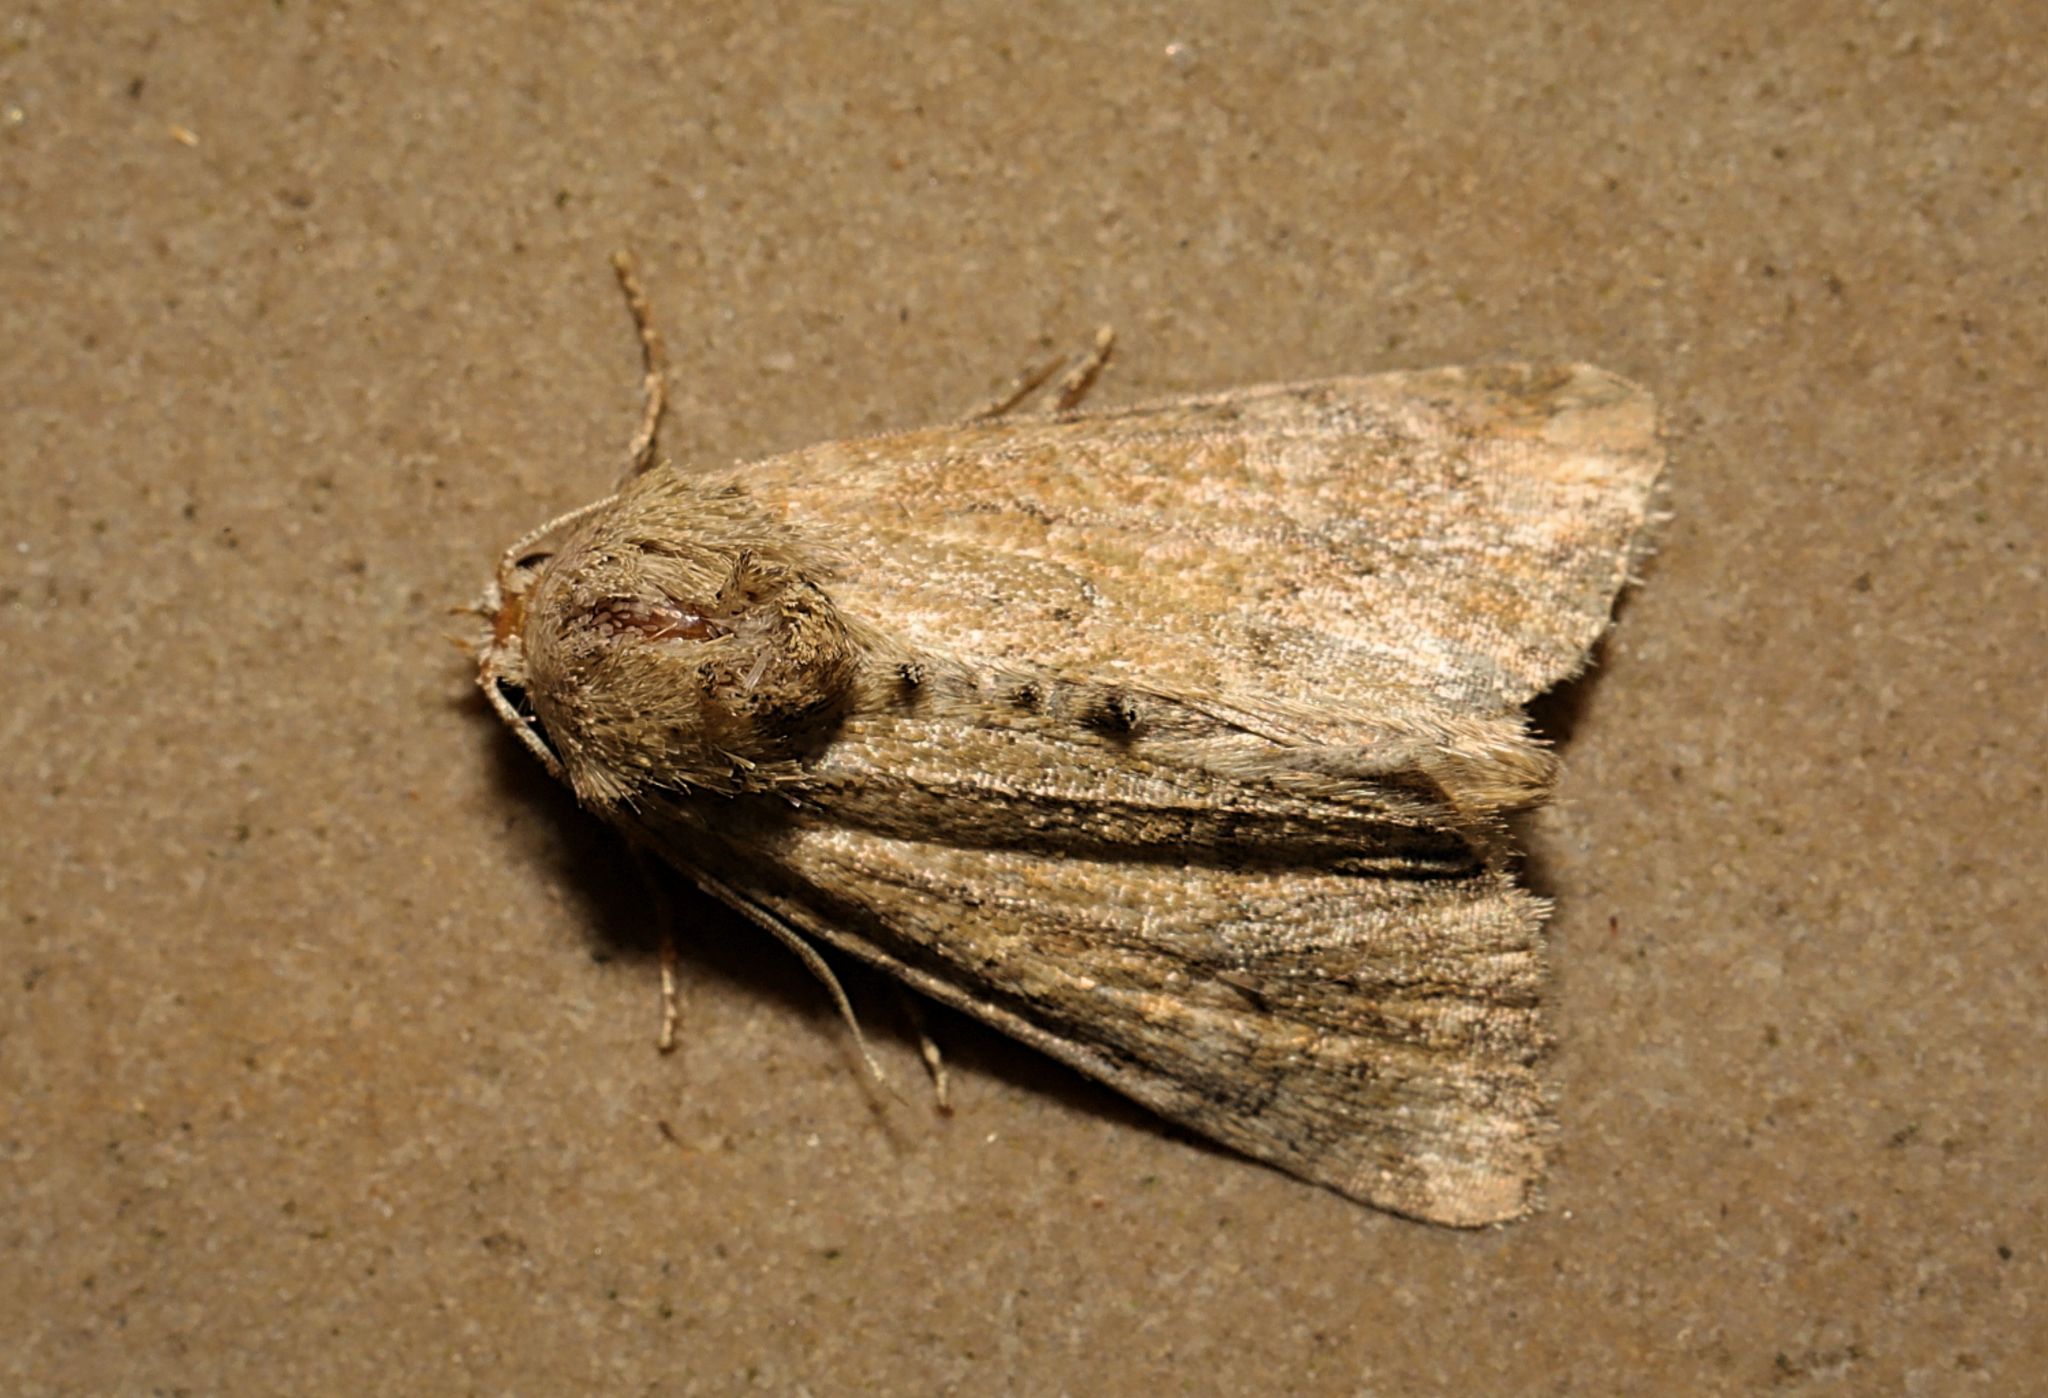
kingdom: Animalia
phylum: Arthropoda
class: Insecta
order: Lepidoptera
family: Noctuidae
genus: Mesoligia
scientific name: Mesoligia furuncula
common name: Cloaked minor
